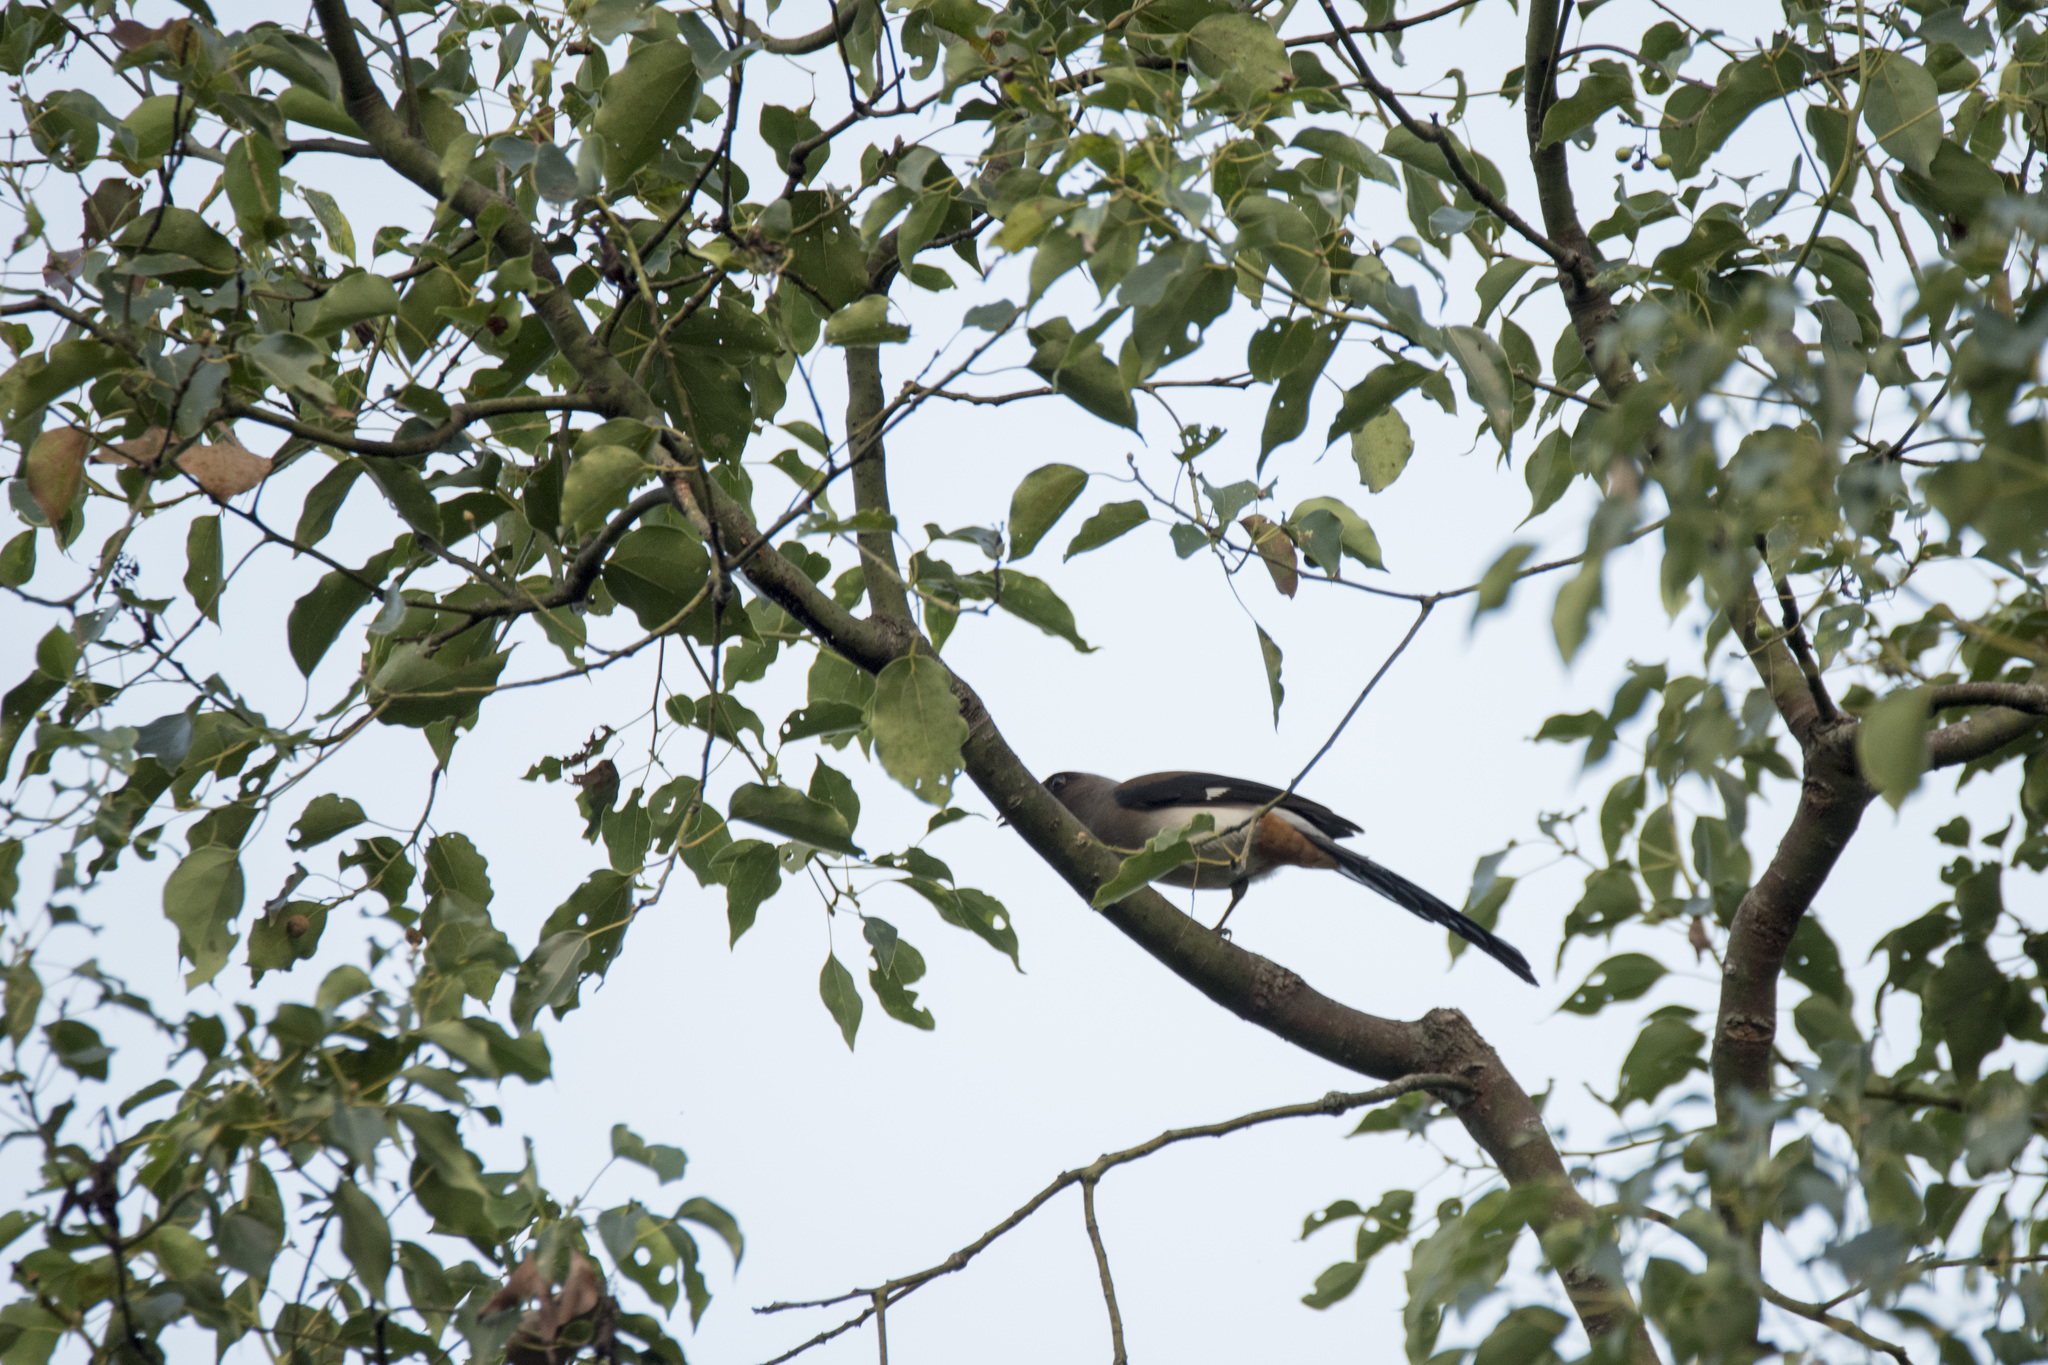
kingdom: Animalia
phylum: Chordata
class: Aves
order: Passeriformes
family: Corvidae
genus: Dendrocitta
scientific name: Dendrocitta formosae
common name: Grey treepie
